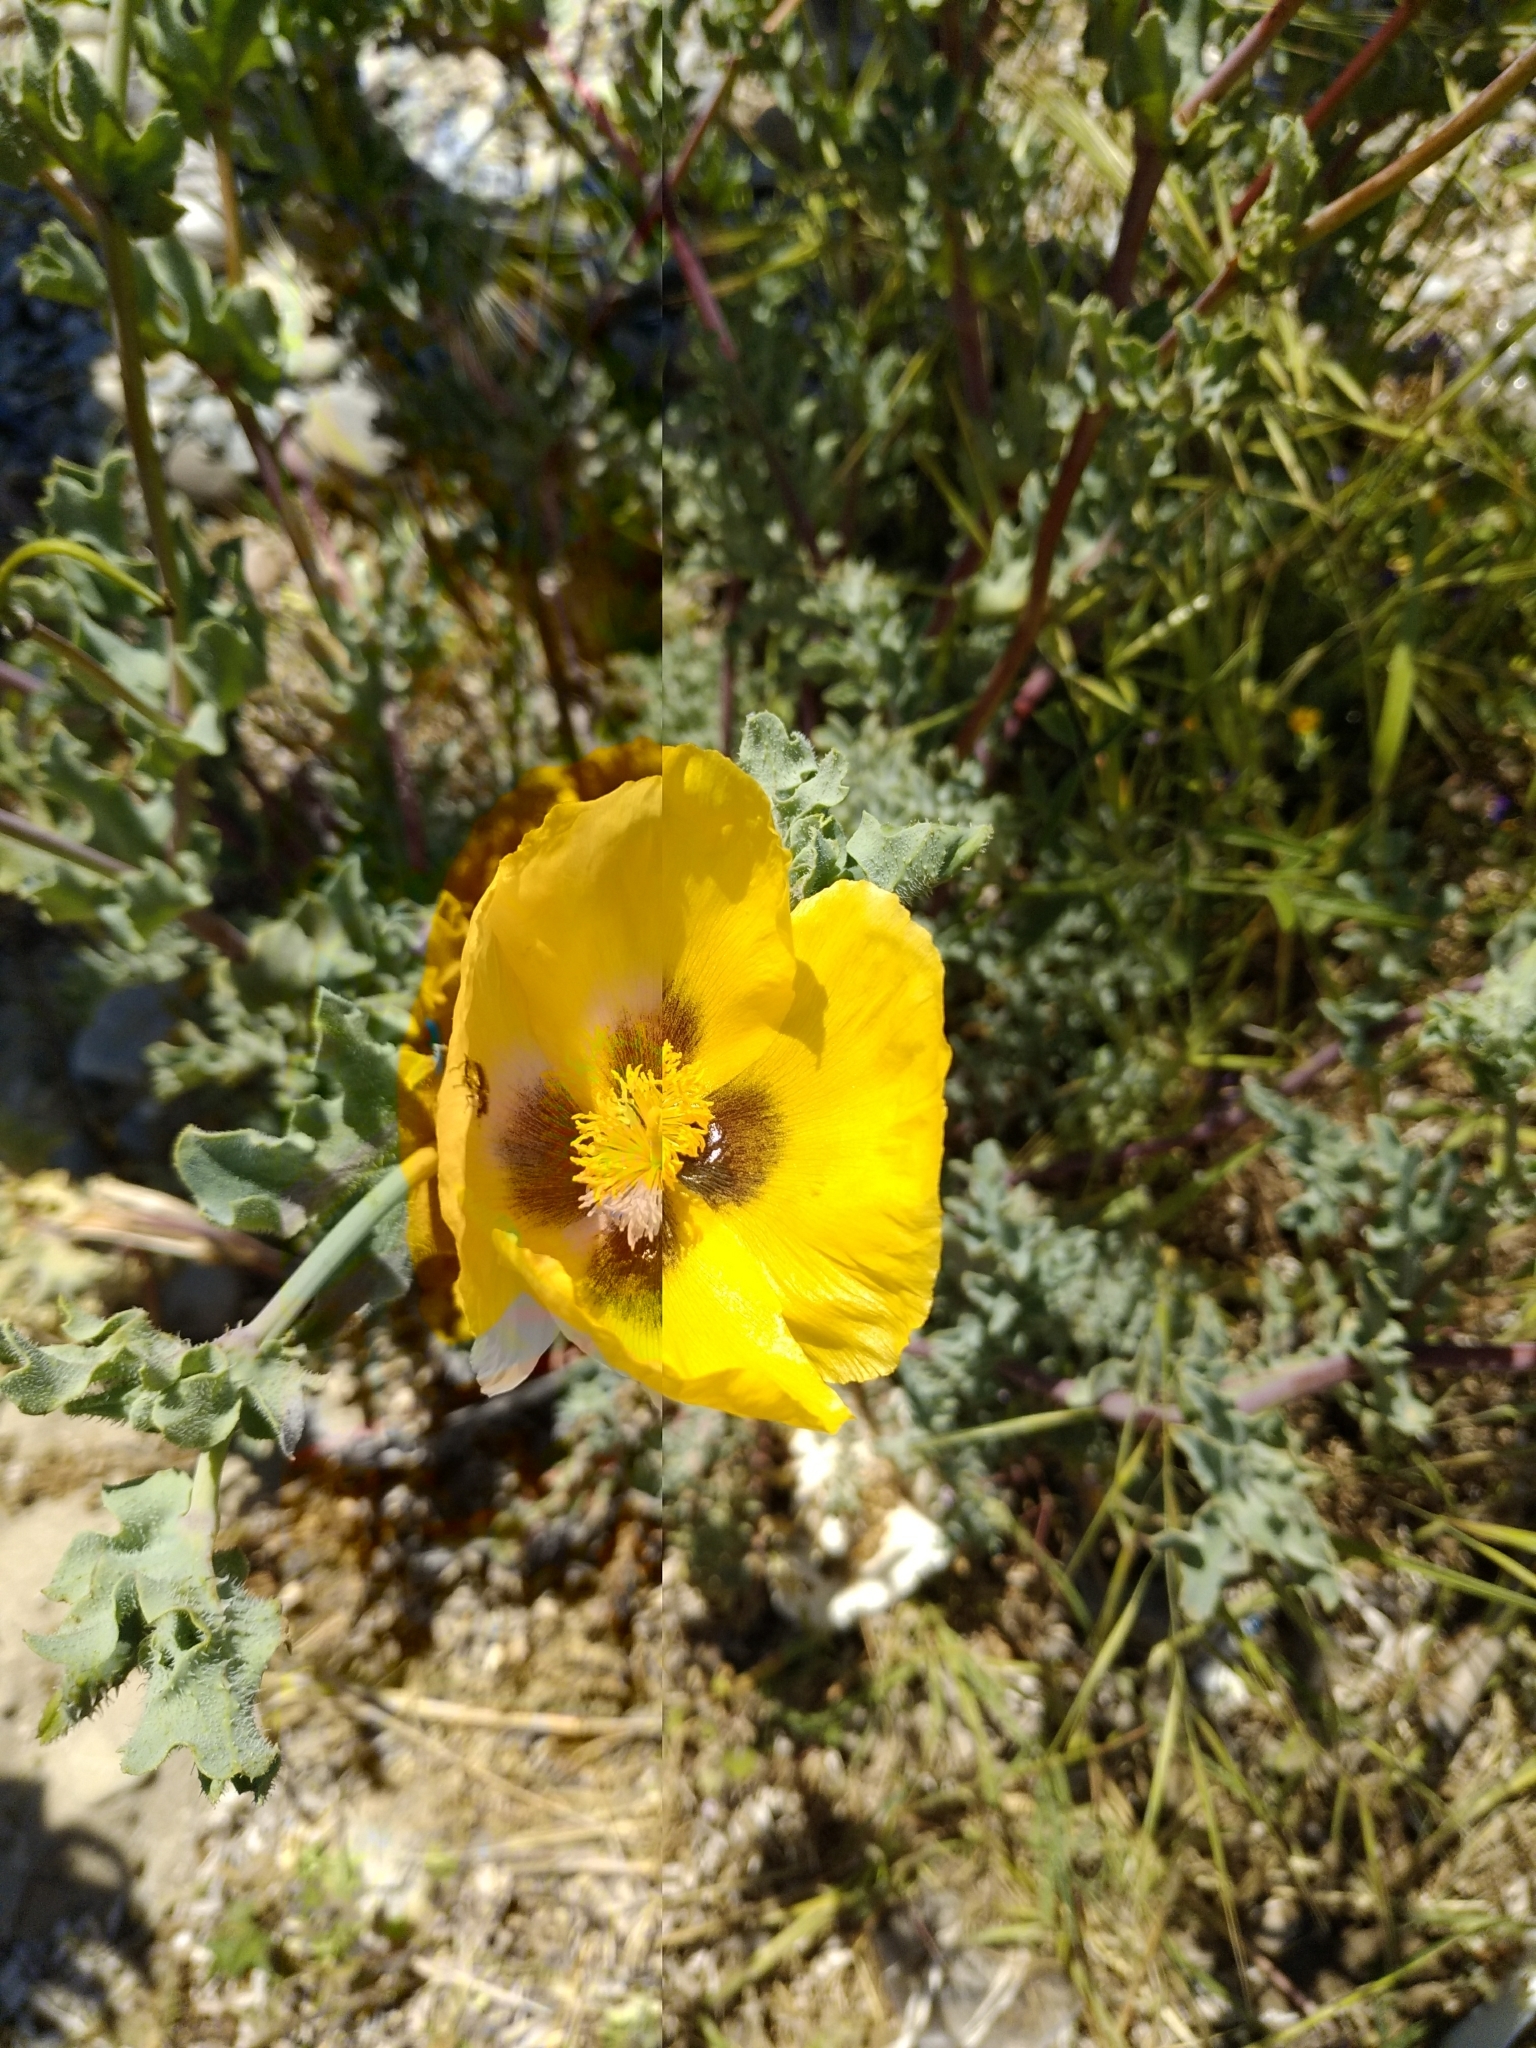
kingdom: Plantae
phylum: Tracheophyta
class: Magnoliopsida
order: Ranunculales
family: Papaveraceae
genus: Glaucium
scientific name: Glaucium flavum
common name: Yellow horned-poppy
